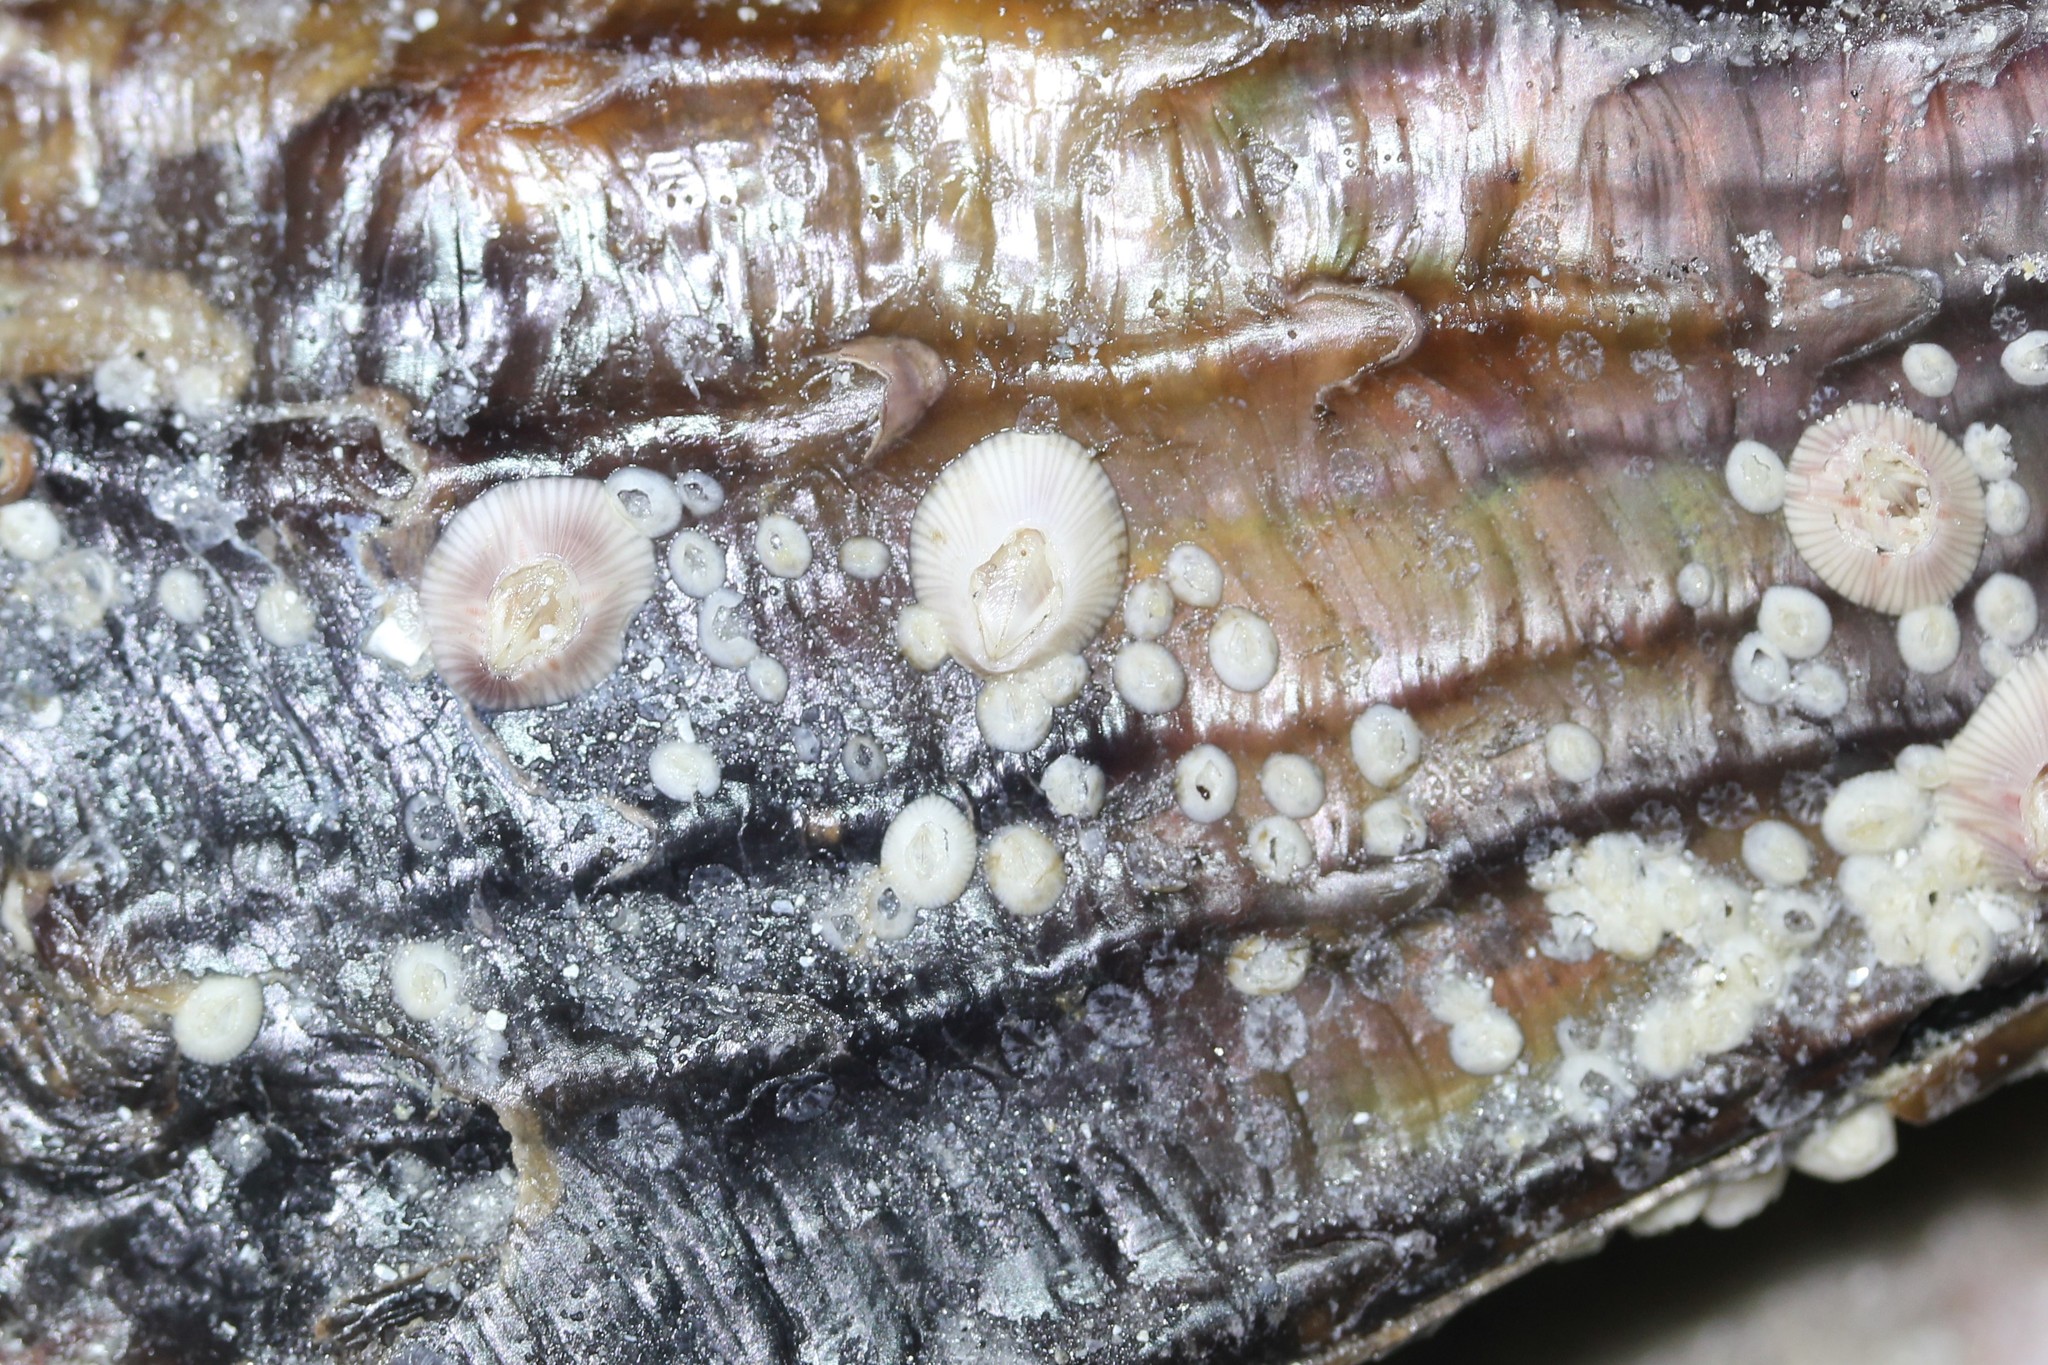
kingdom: Animalia
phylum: Arthropoda
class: Maxillopoda
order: Sessilia
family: Balanidae
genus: Amphibalanus
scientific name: Amphibalanus venustus
